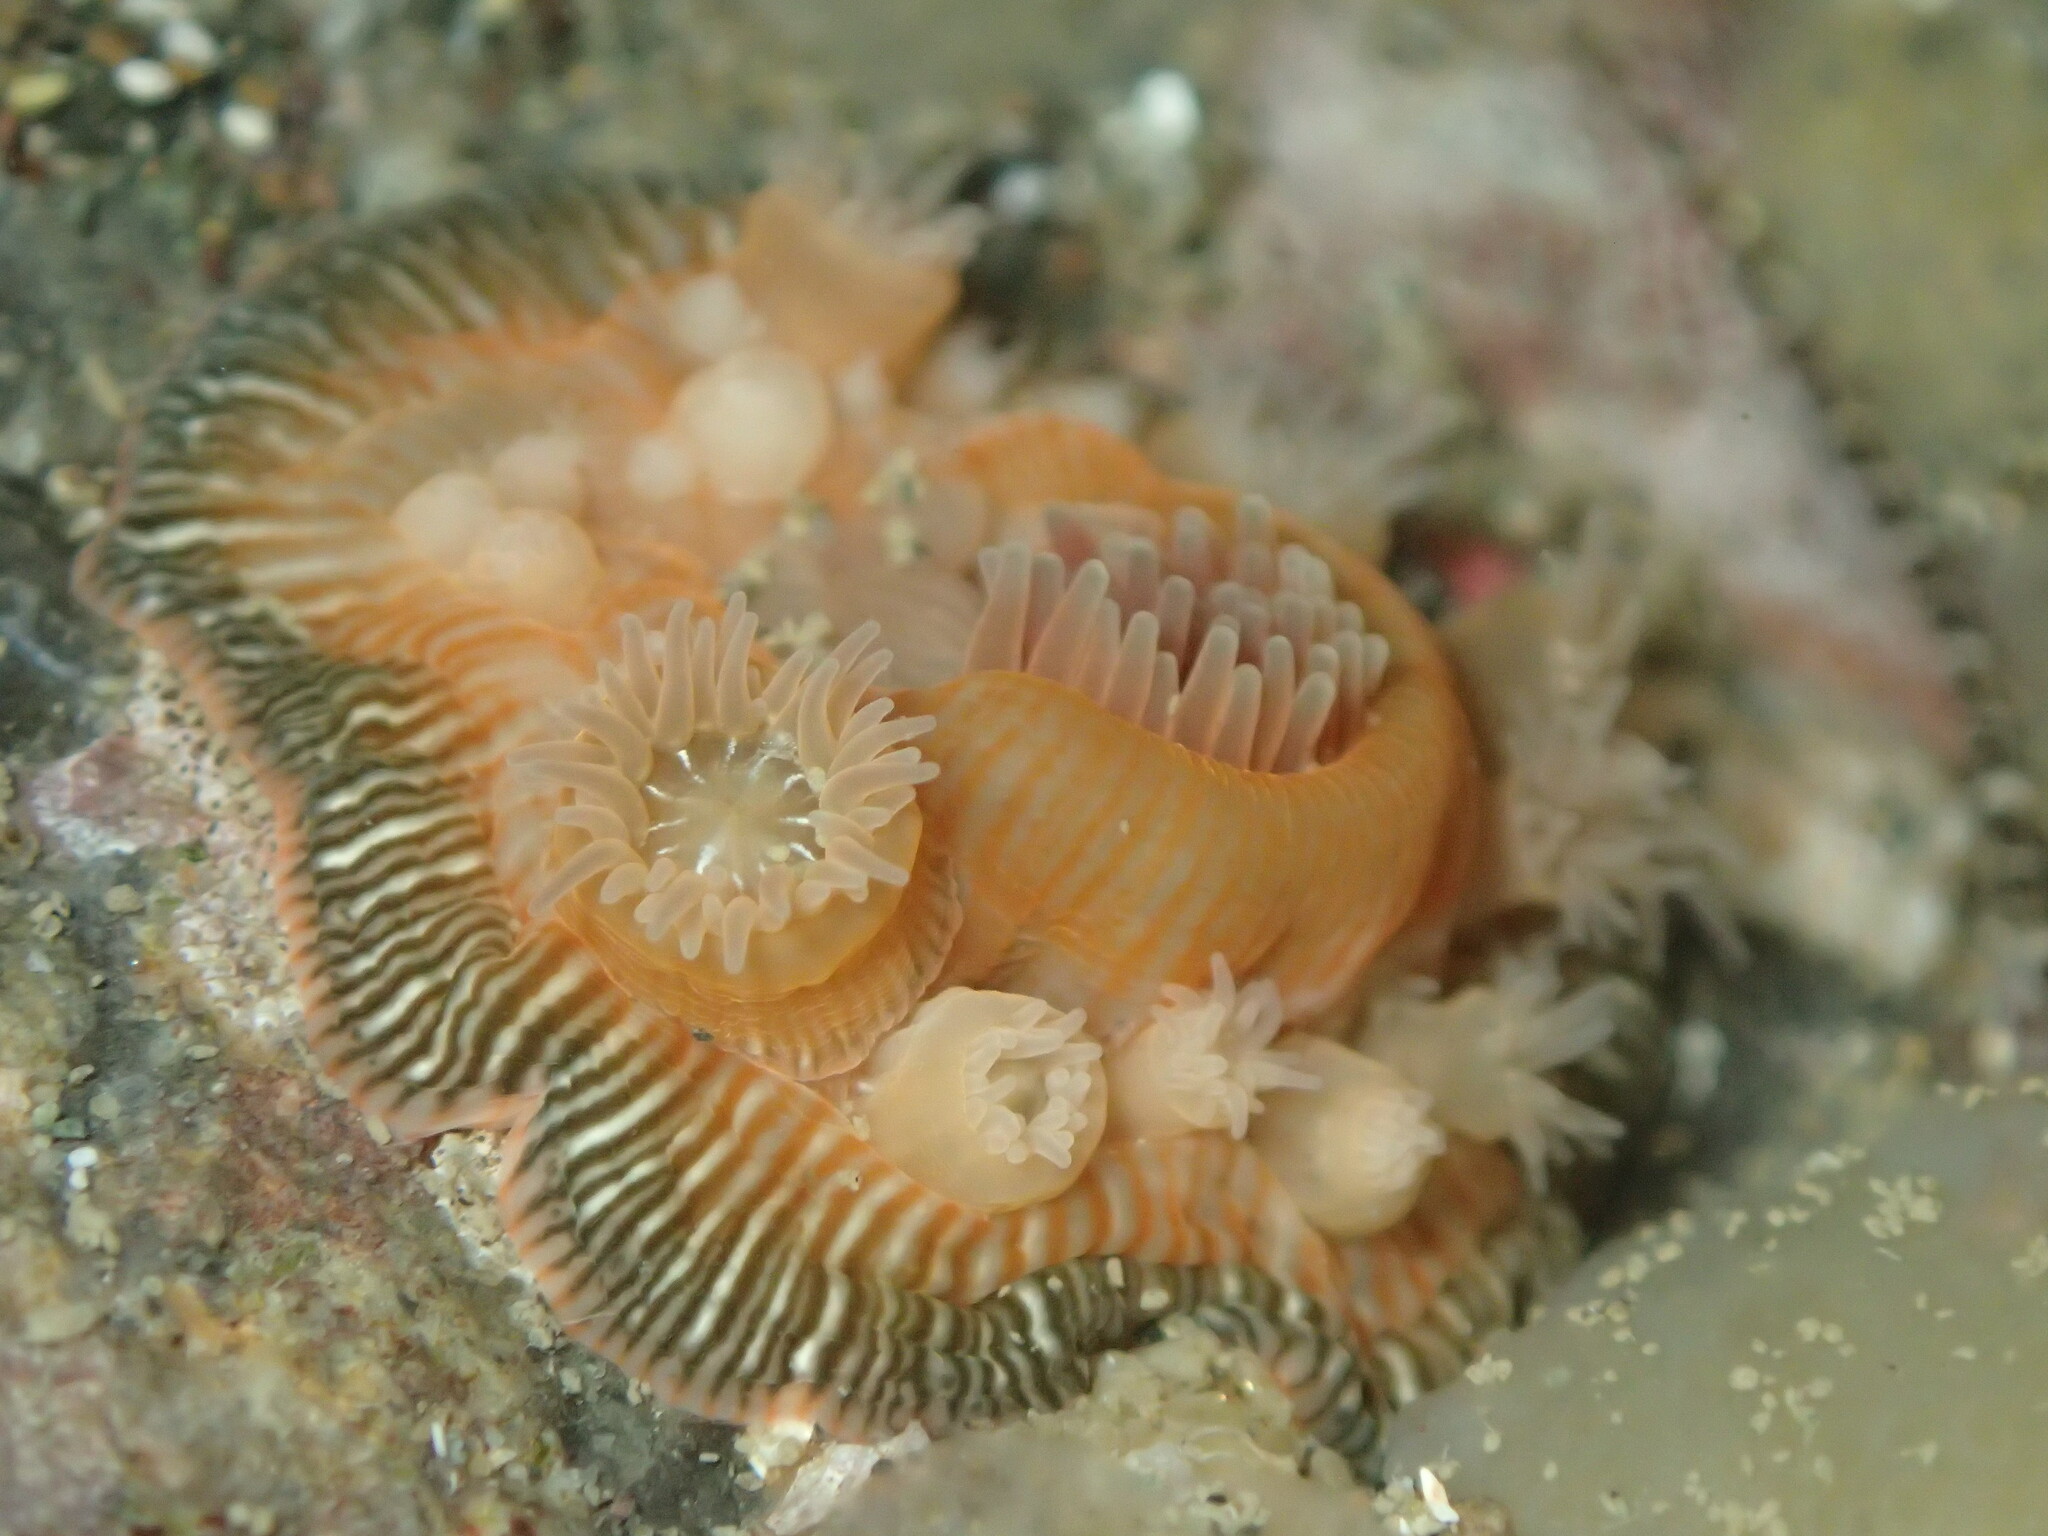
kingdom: Animalia
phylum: Cnidaria
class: Anthozoa
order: Actiniaria
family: Actiniidae
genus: Epiactis
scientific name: Epiactis prolifera
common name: Brooding anemone
